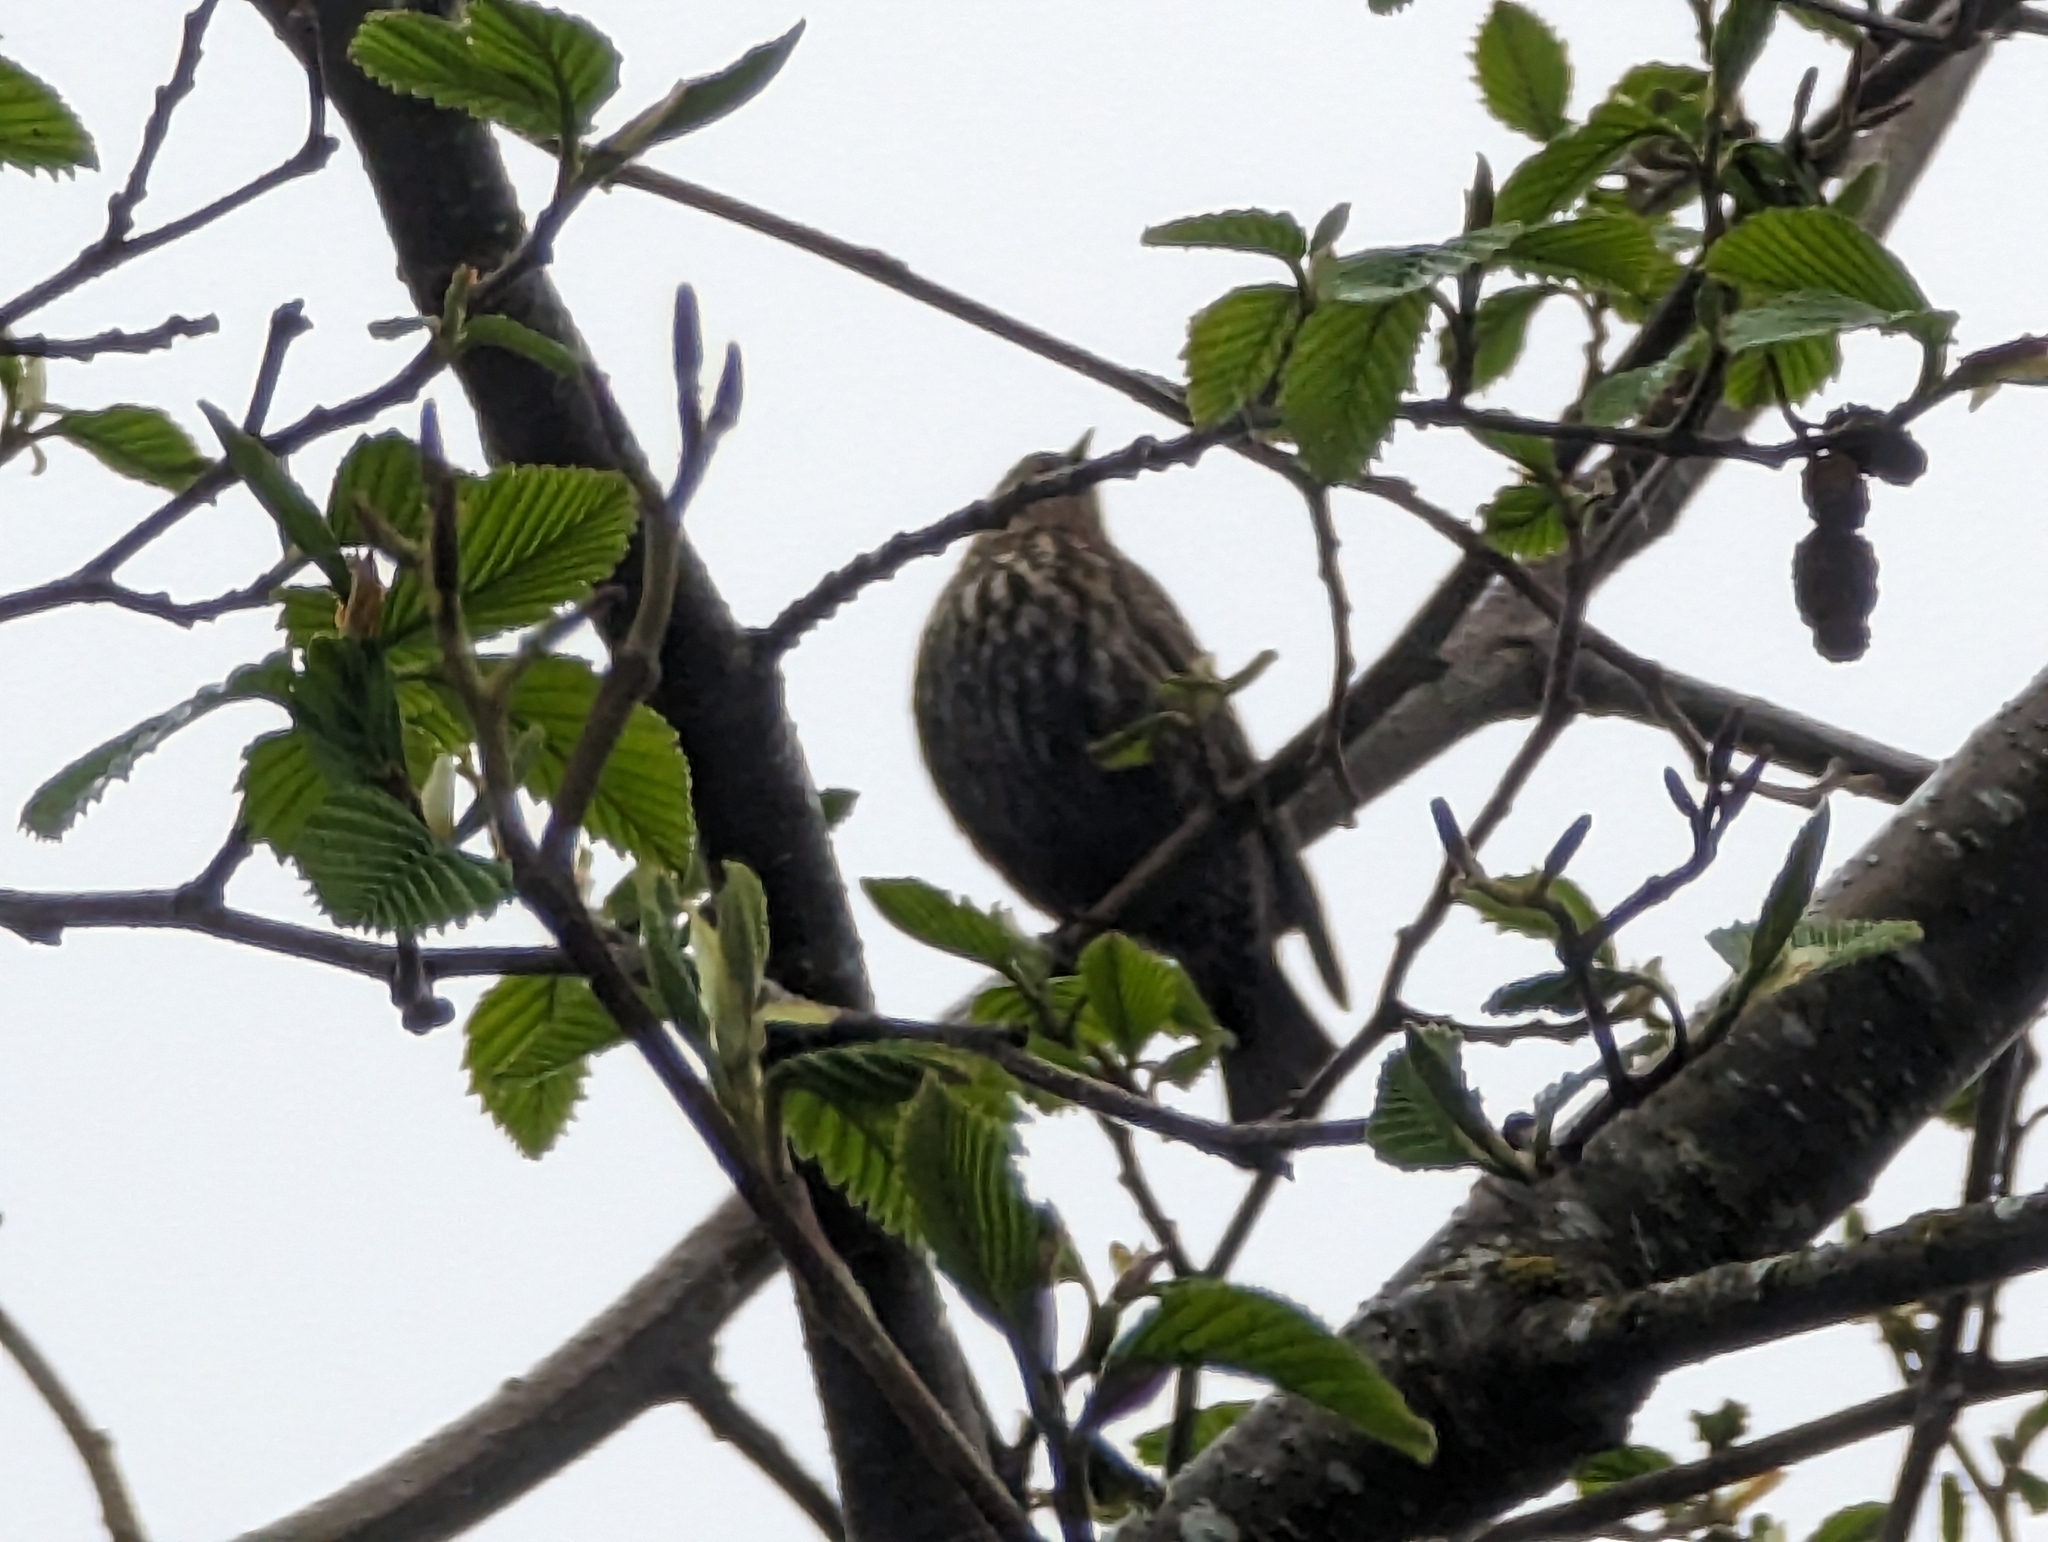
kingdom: Animalia
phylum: Chordata
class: Aves
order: Passeriformes
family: Icteridae
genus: Agelaius
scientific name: Agelaius phoeniceus
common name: Red-winged blackbird
